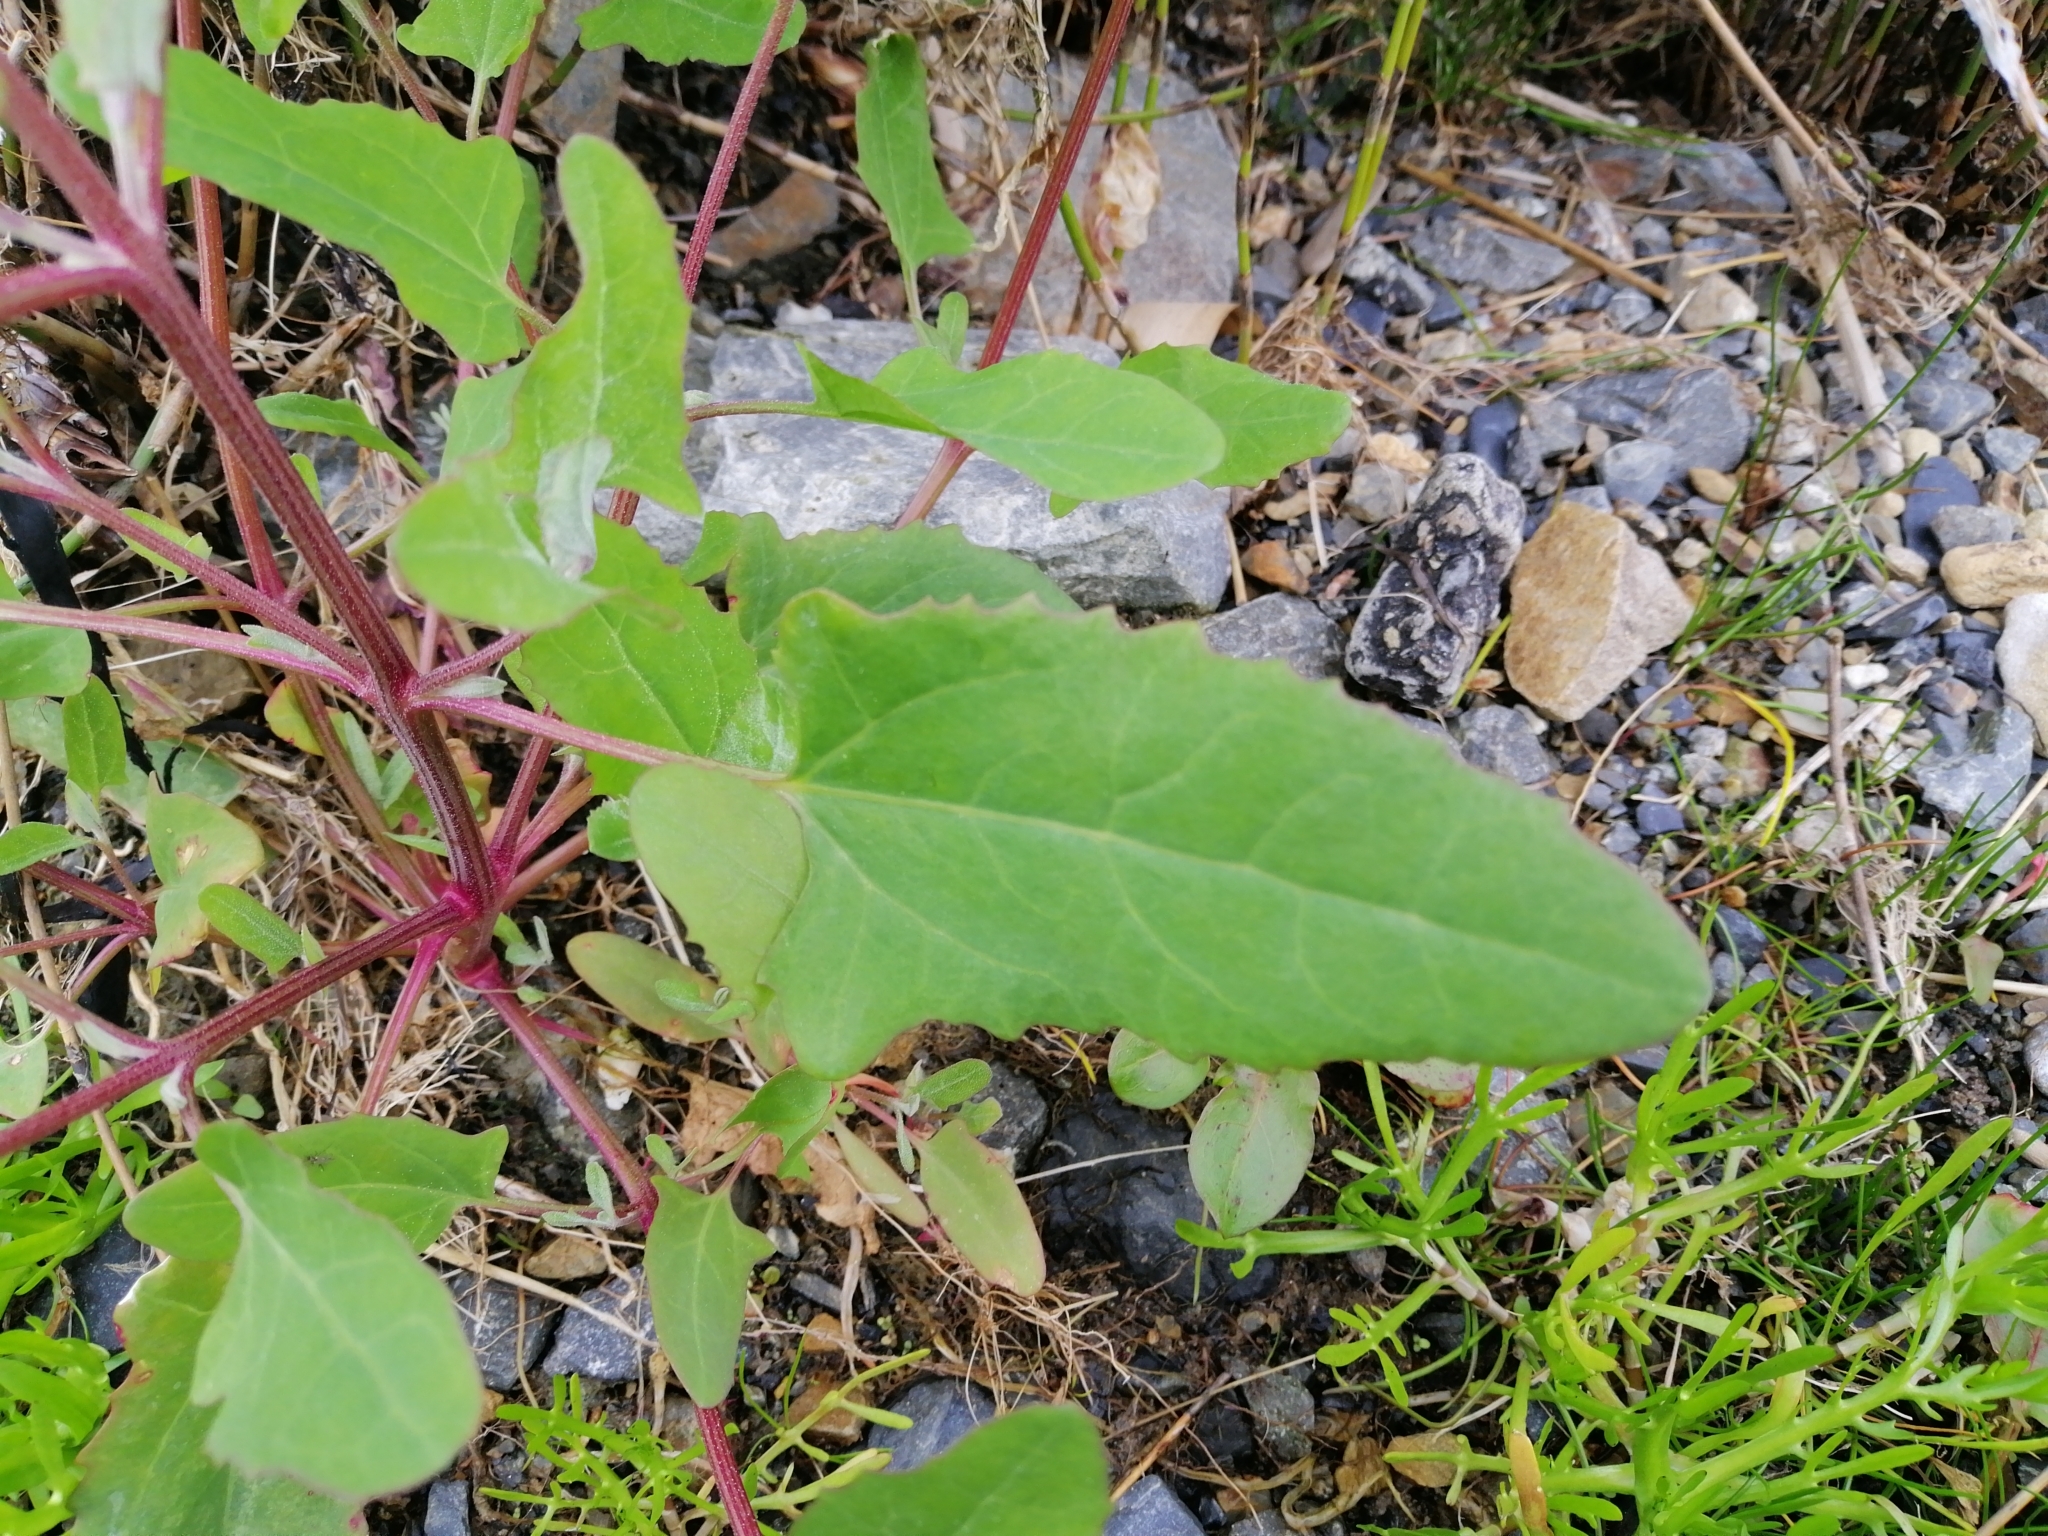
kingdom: Plantae
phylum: Tracheophyta
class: Magnoliopsida
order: Caryophyllales
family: Amaranthaceae
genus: Atriplex
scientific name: Atriplex prostrata
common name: Spear-leaved orache
